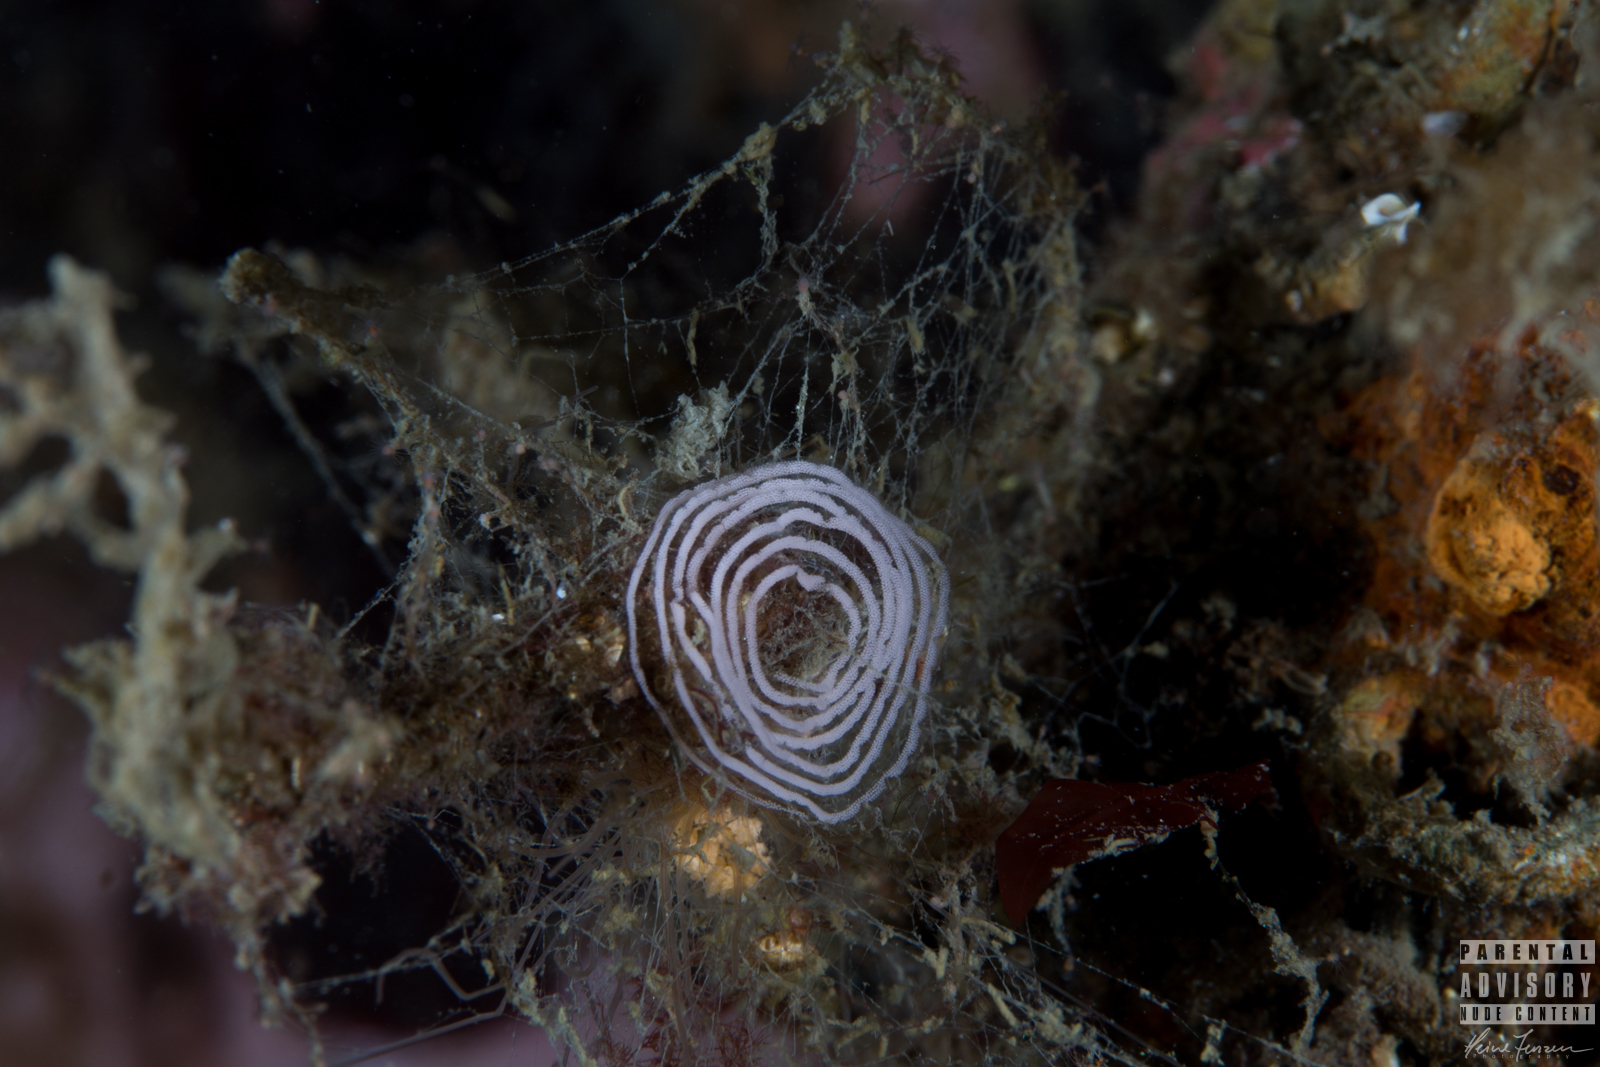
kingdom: Animalia
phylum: Mollusca
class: Gastropoda
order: Nudibranchia
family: Coryphellidae
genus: Coryphella
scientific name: Coryphella verrucosa
